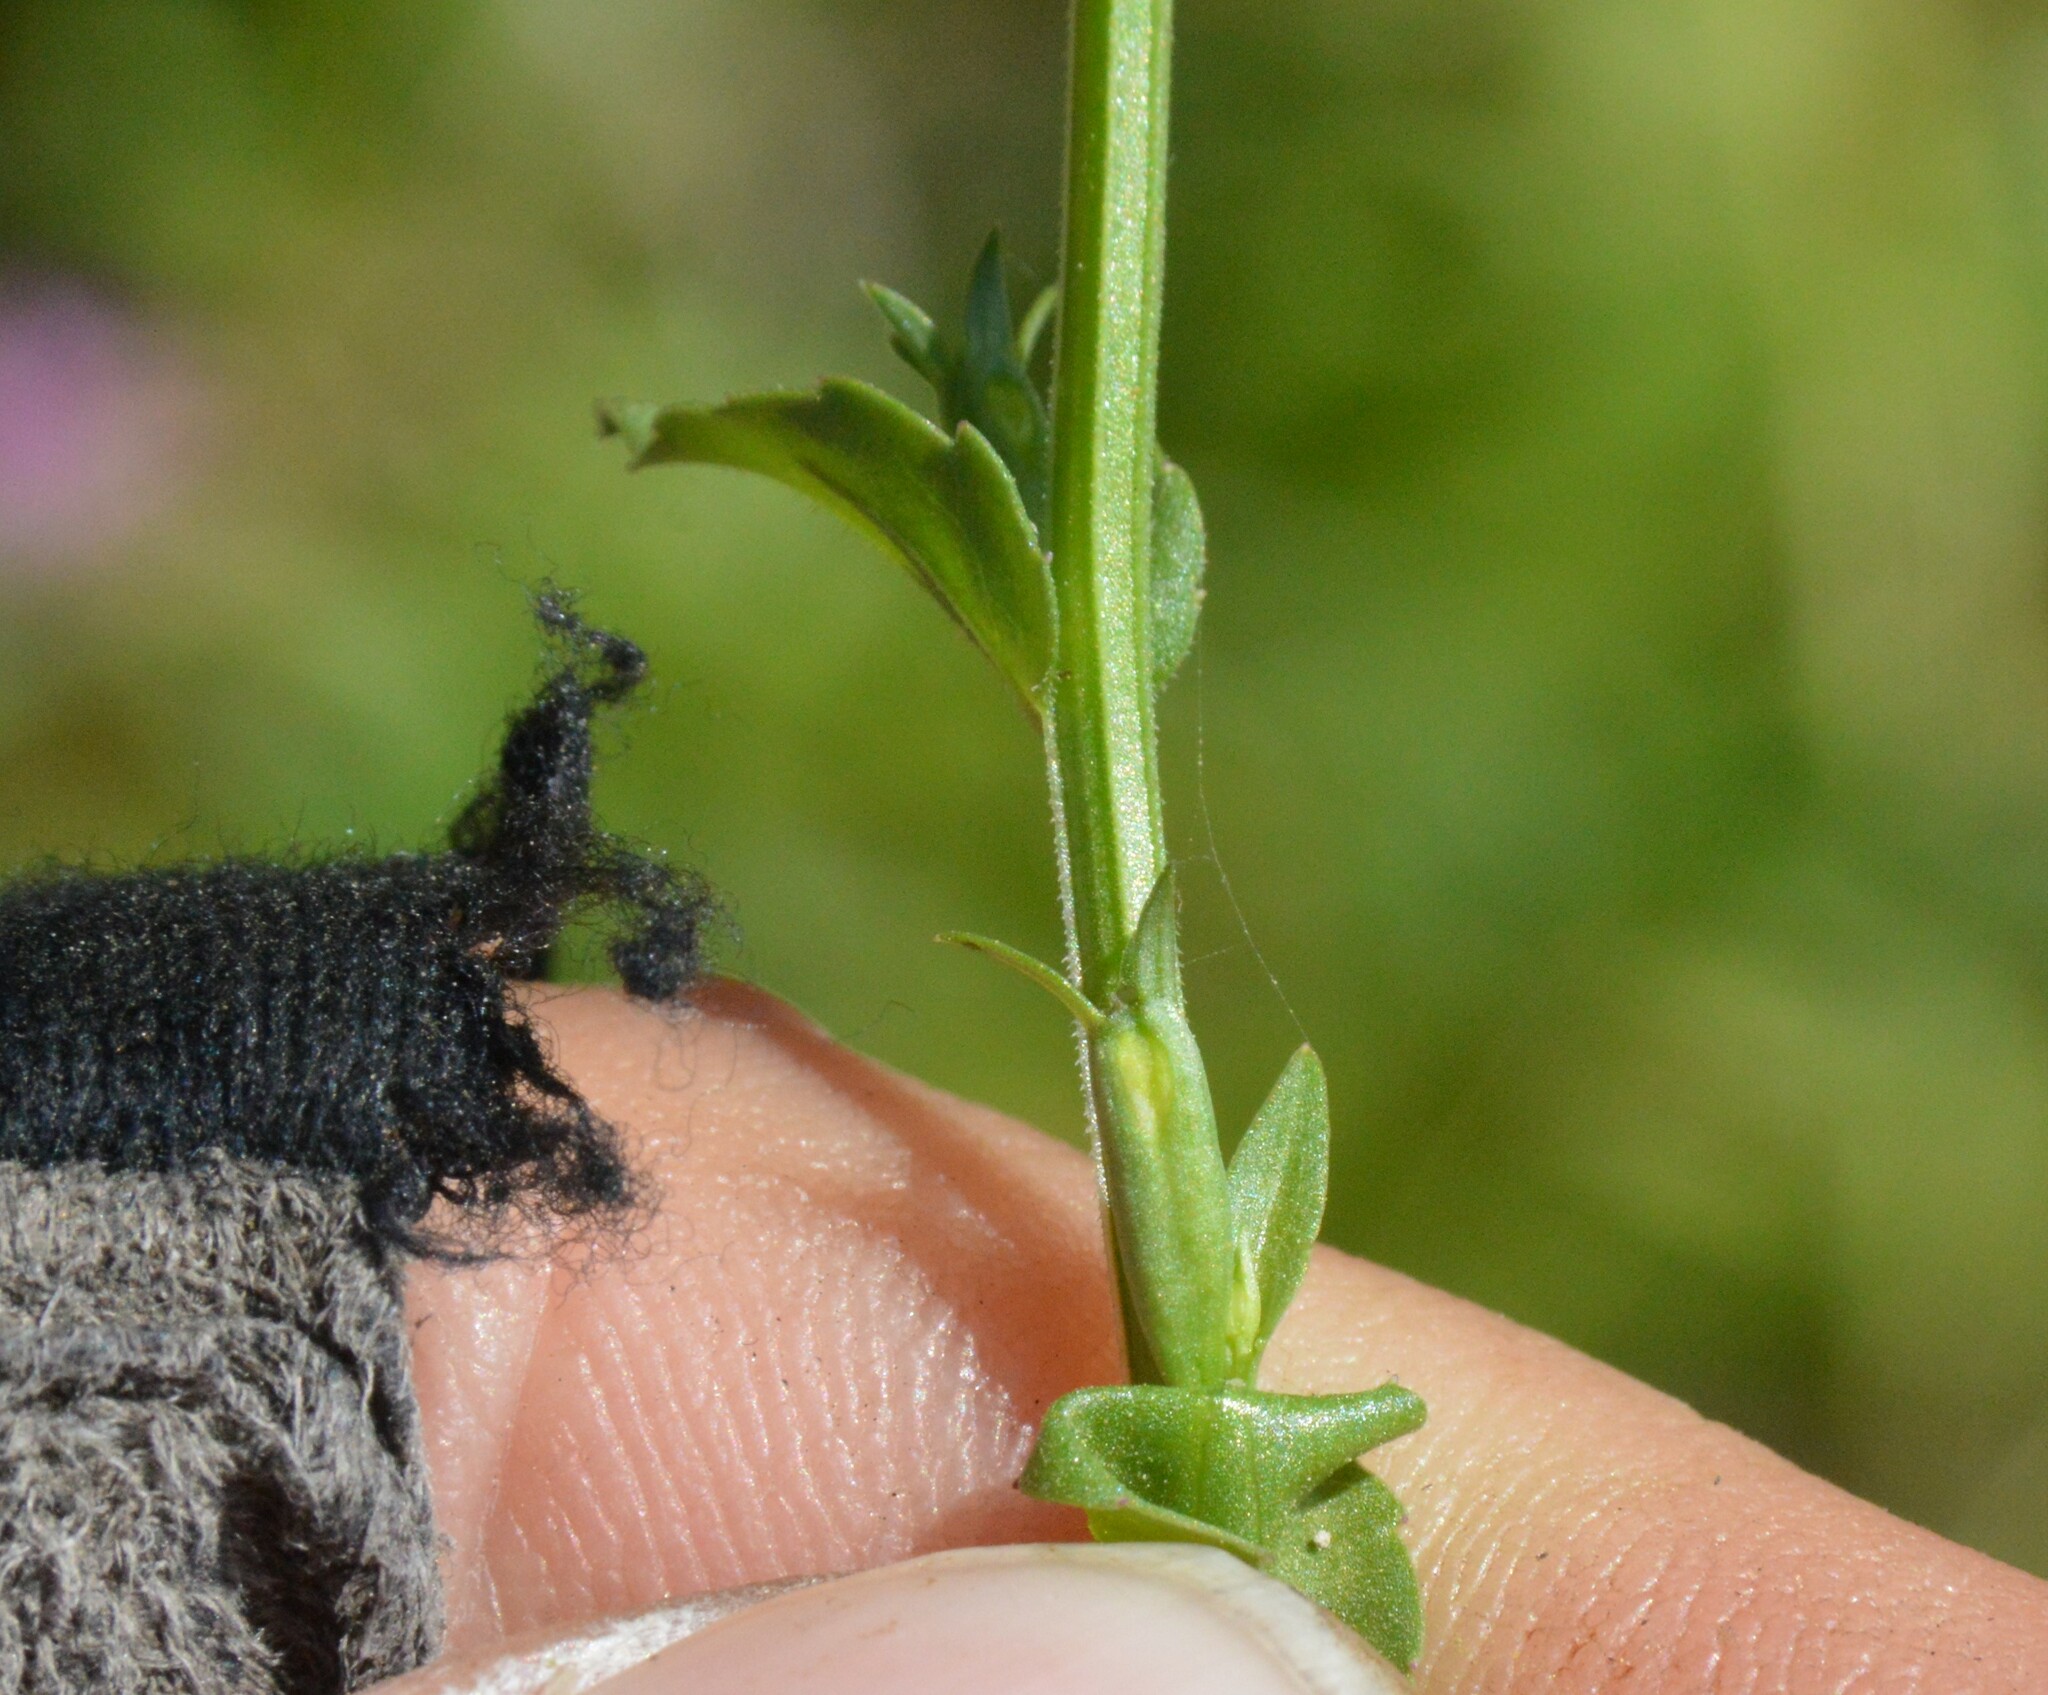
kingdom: Plantae
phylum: Tracheophyta
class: Magnoliopsida
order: Asterales
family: Campanulaceae
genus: Triodanis
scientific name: Triodanis biflora
